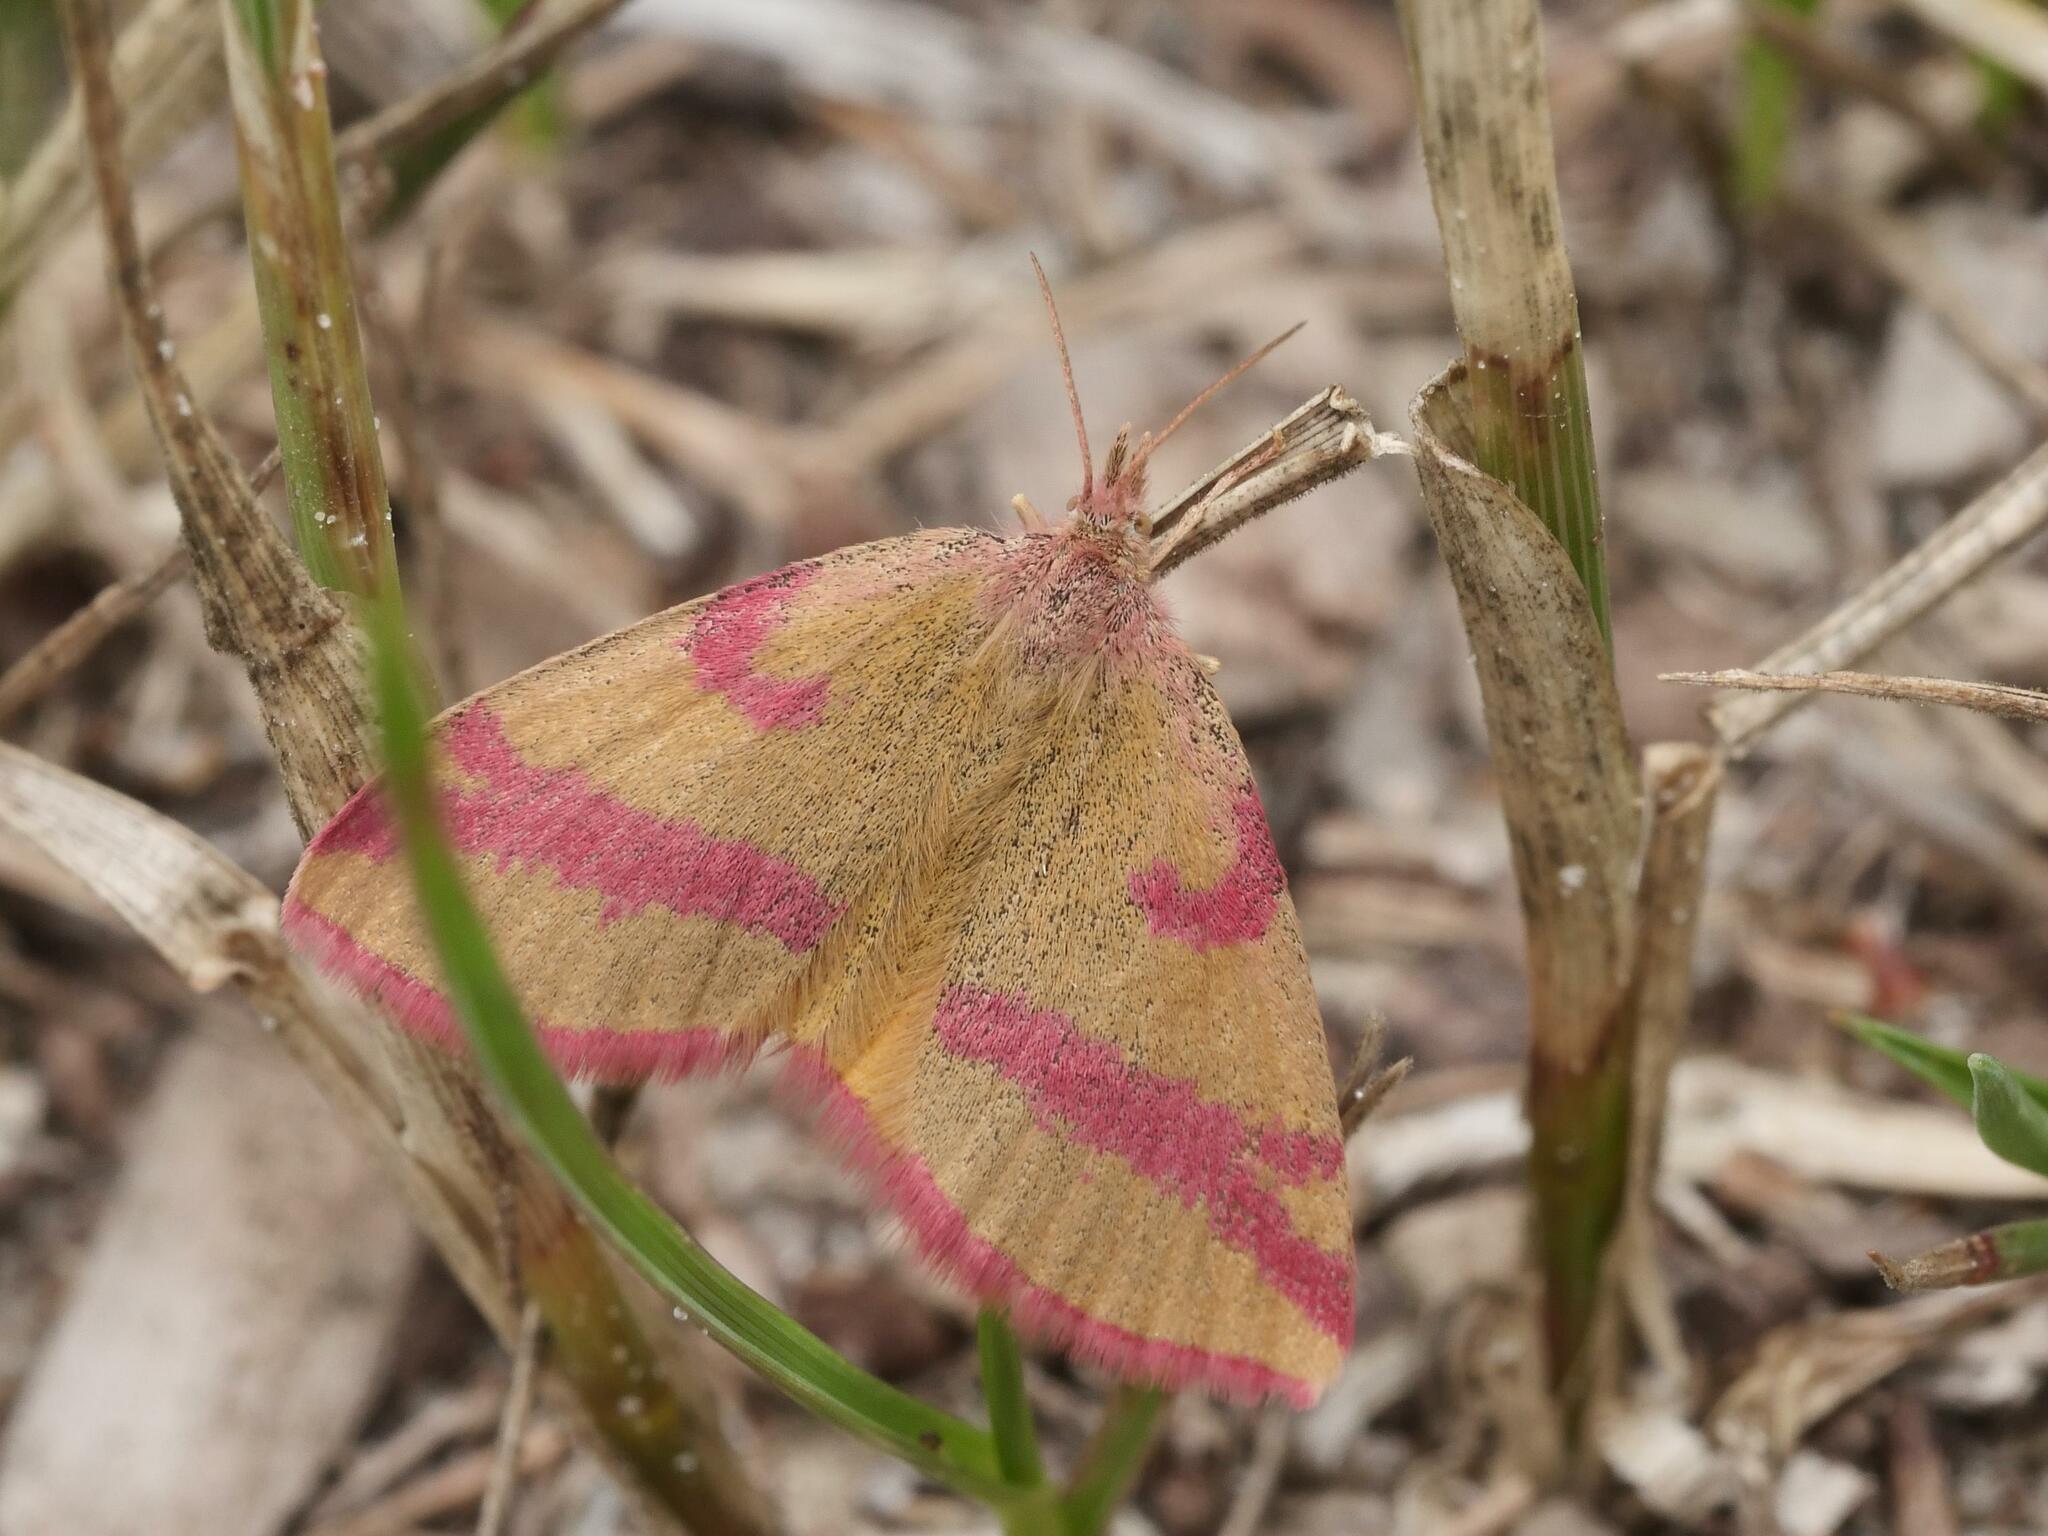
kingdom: Animalia
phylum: Arthropoda
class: Insecta
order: Lepidoptera
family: Geometridae
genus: Lythria
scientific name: Lythria cruentaria
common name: Purple-barred yellow
